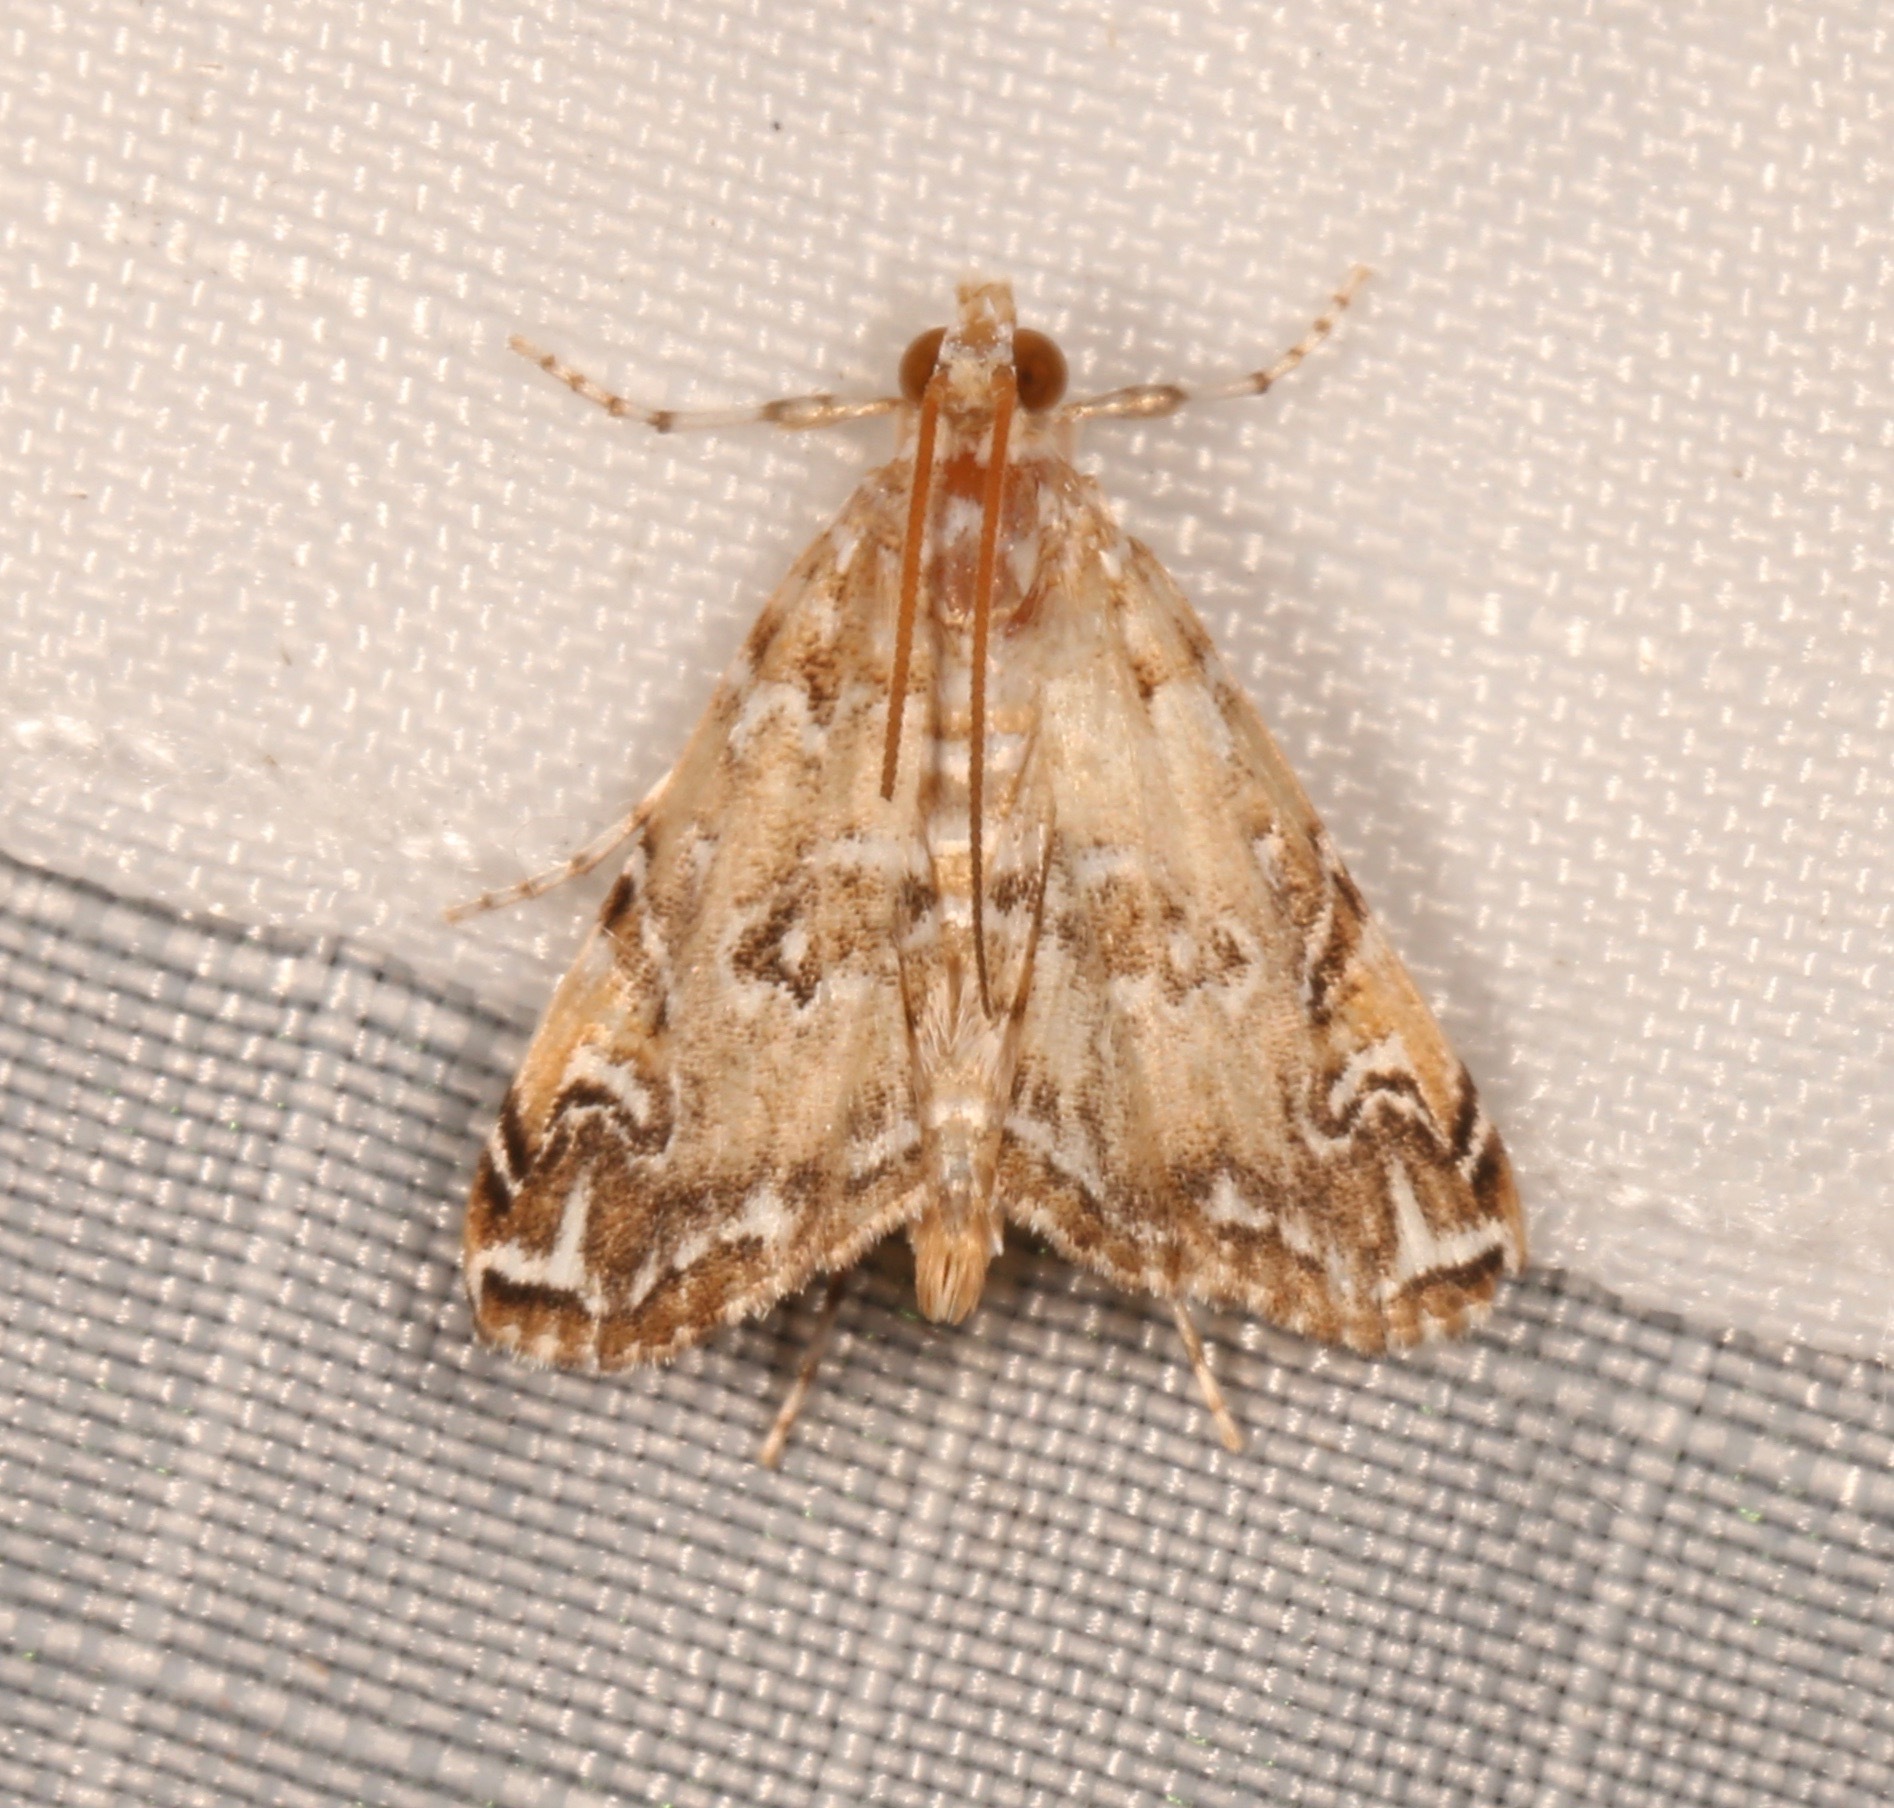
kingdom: Animalia
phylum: Arthropoda
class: Insecta
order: Lepidoptera
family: Crambidae
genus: Elophila
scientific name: Elophila gyralis
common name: Waterlily borer moth
